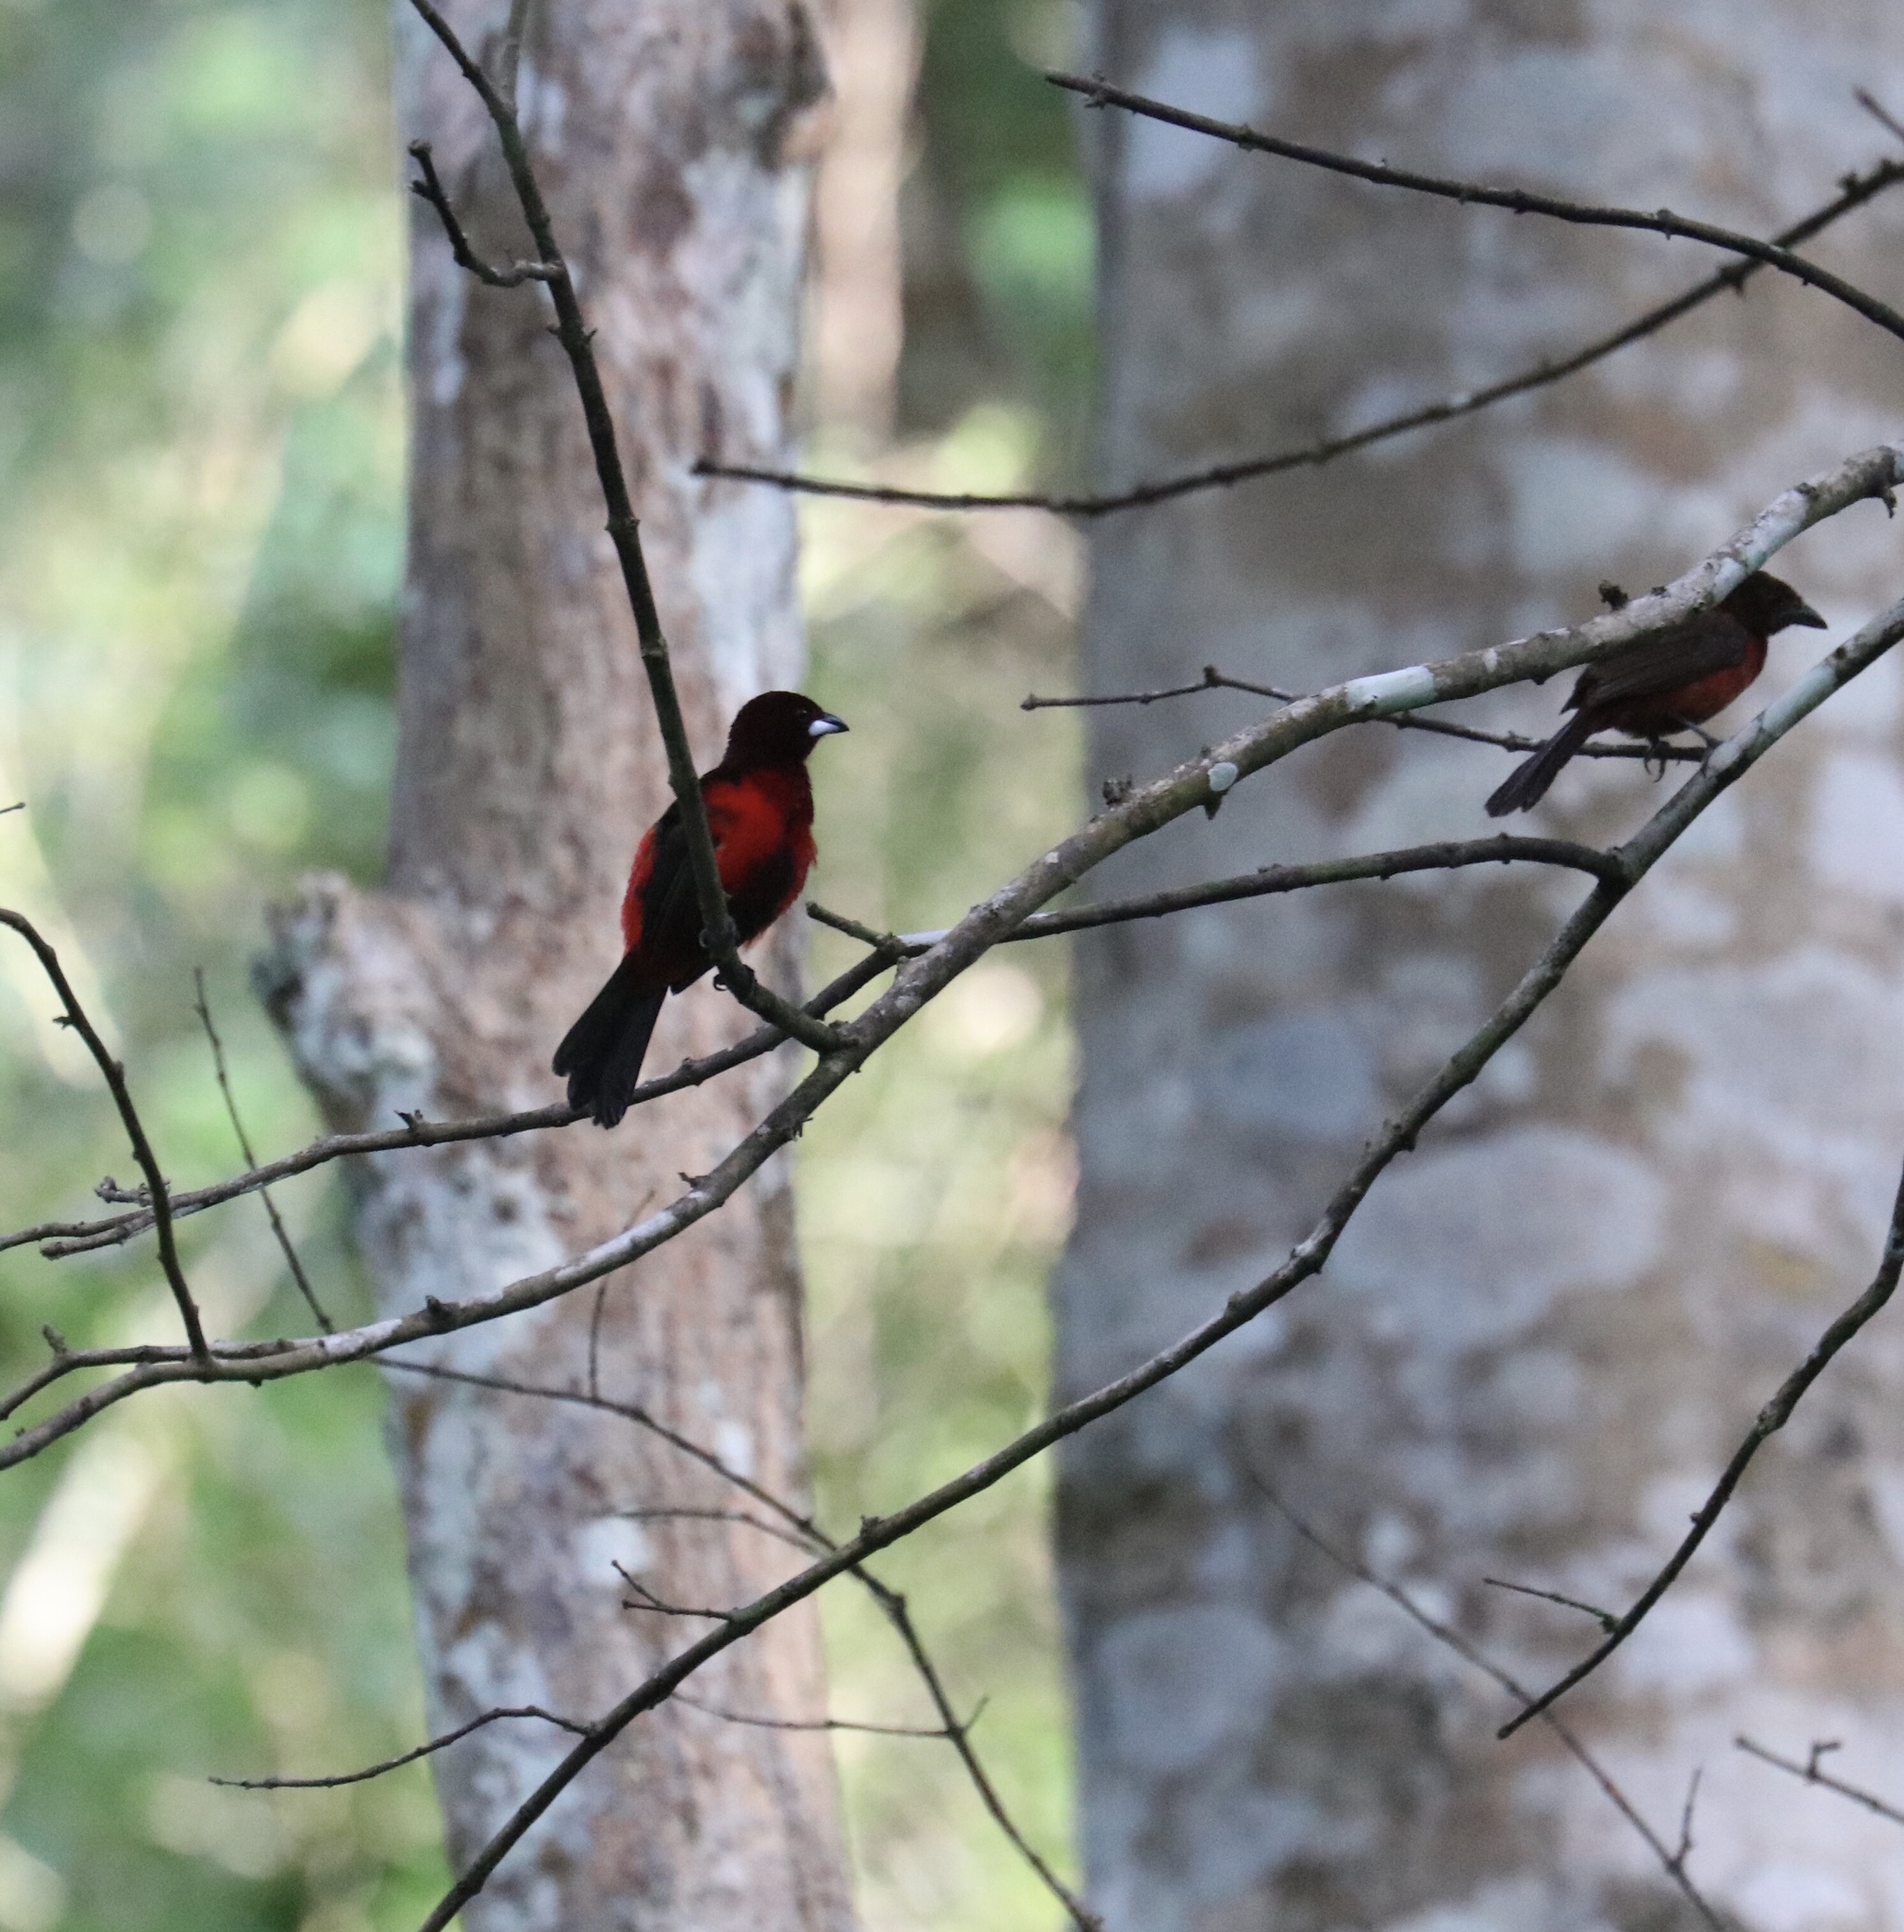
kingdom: Animalia
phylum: Chordata
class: Aves
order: Passeriformes
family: Thraupidae
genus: Ramphocelus
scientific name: Ramphocelus dimidiatus
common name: Crimson-backed tanager
